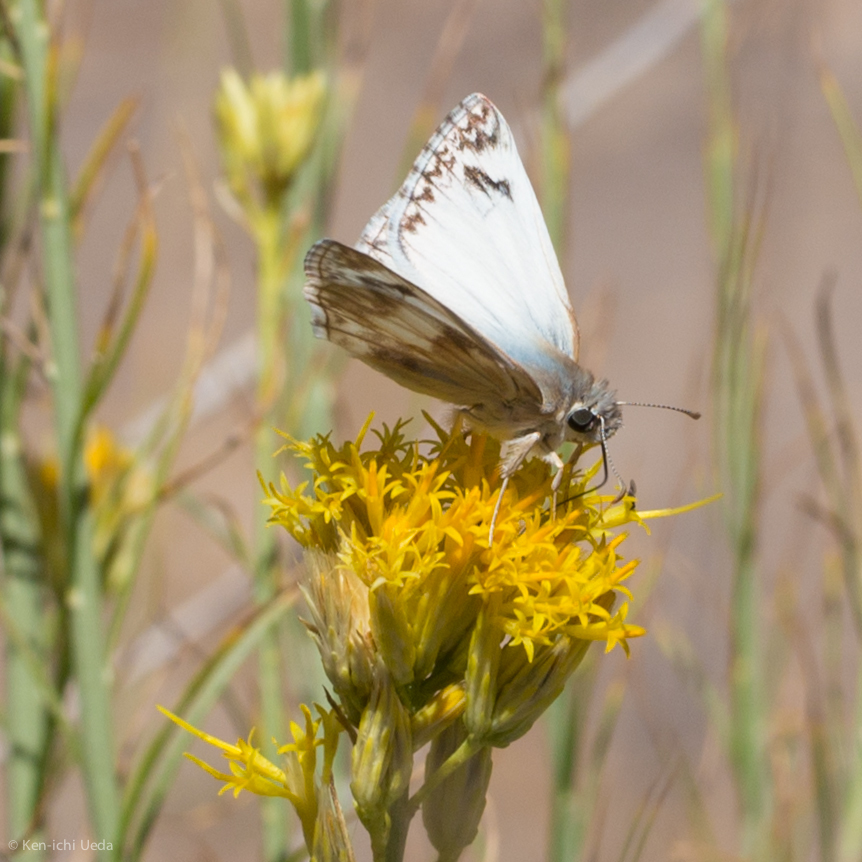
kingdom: Animalia
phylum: Arthropoda
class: Insecta
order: Lepidoptera
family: Hesperiidae
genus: Heliopetes
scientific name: Heliopetes ericetorum
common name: Northern white-skipper
